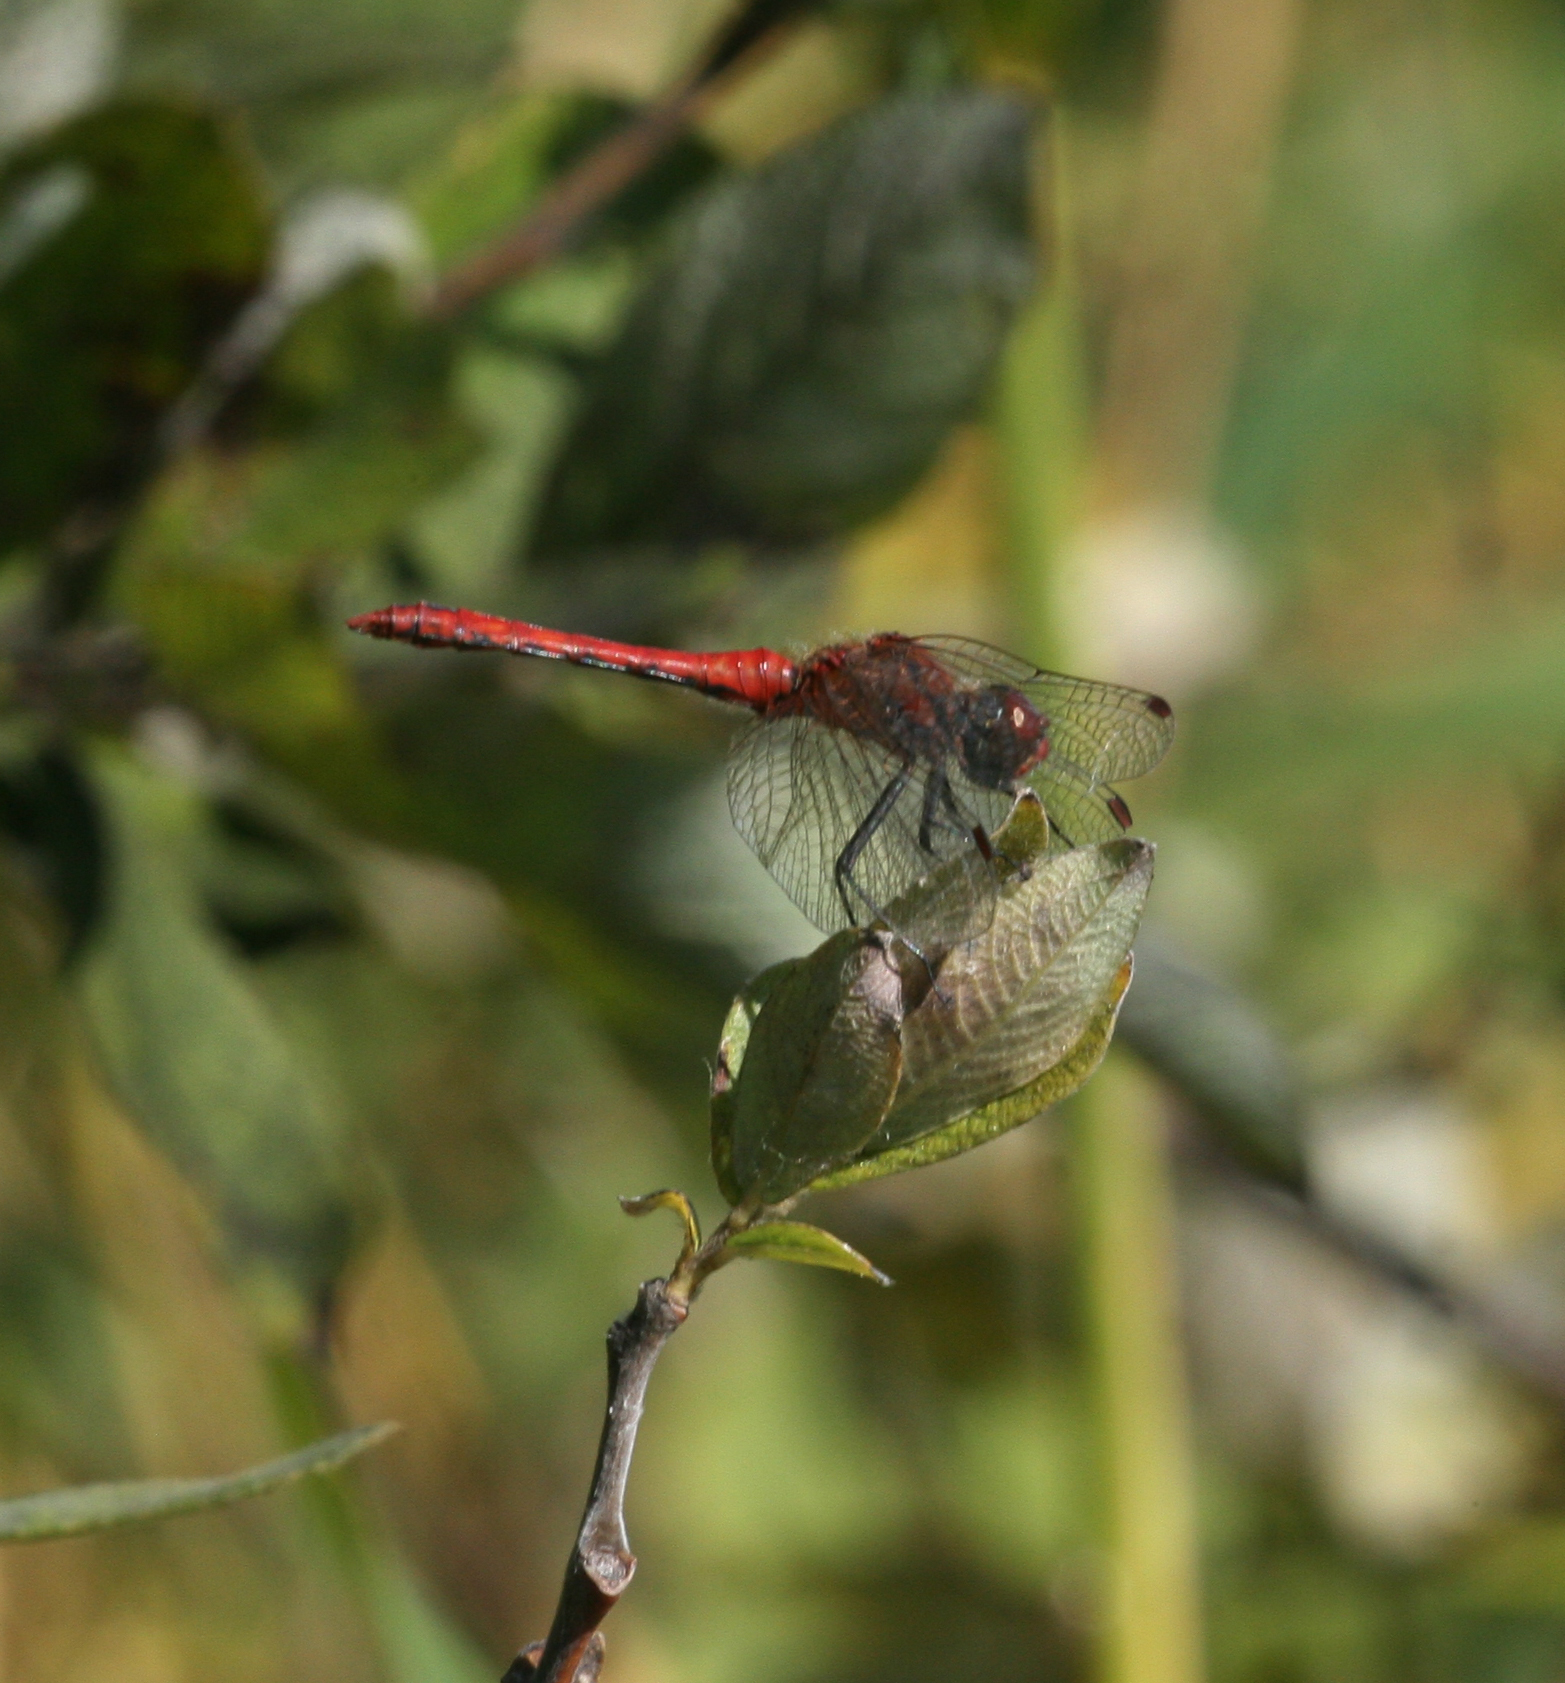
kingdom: Animalia
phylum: Arthropoda
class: Insecta
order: Odonata
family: Libellulidae
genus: Sympetrum
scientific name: Sympetrum sanguineum
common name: Ruddy darter
